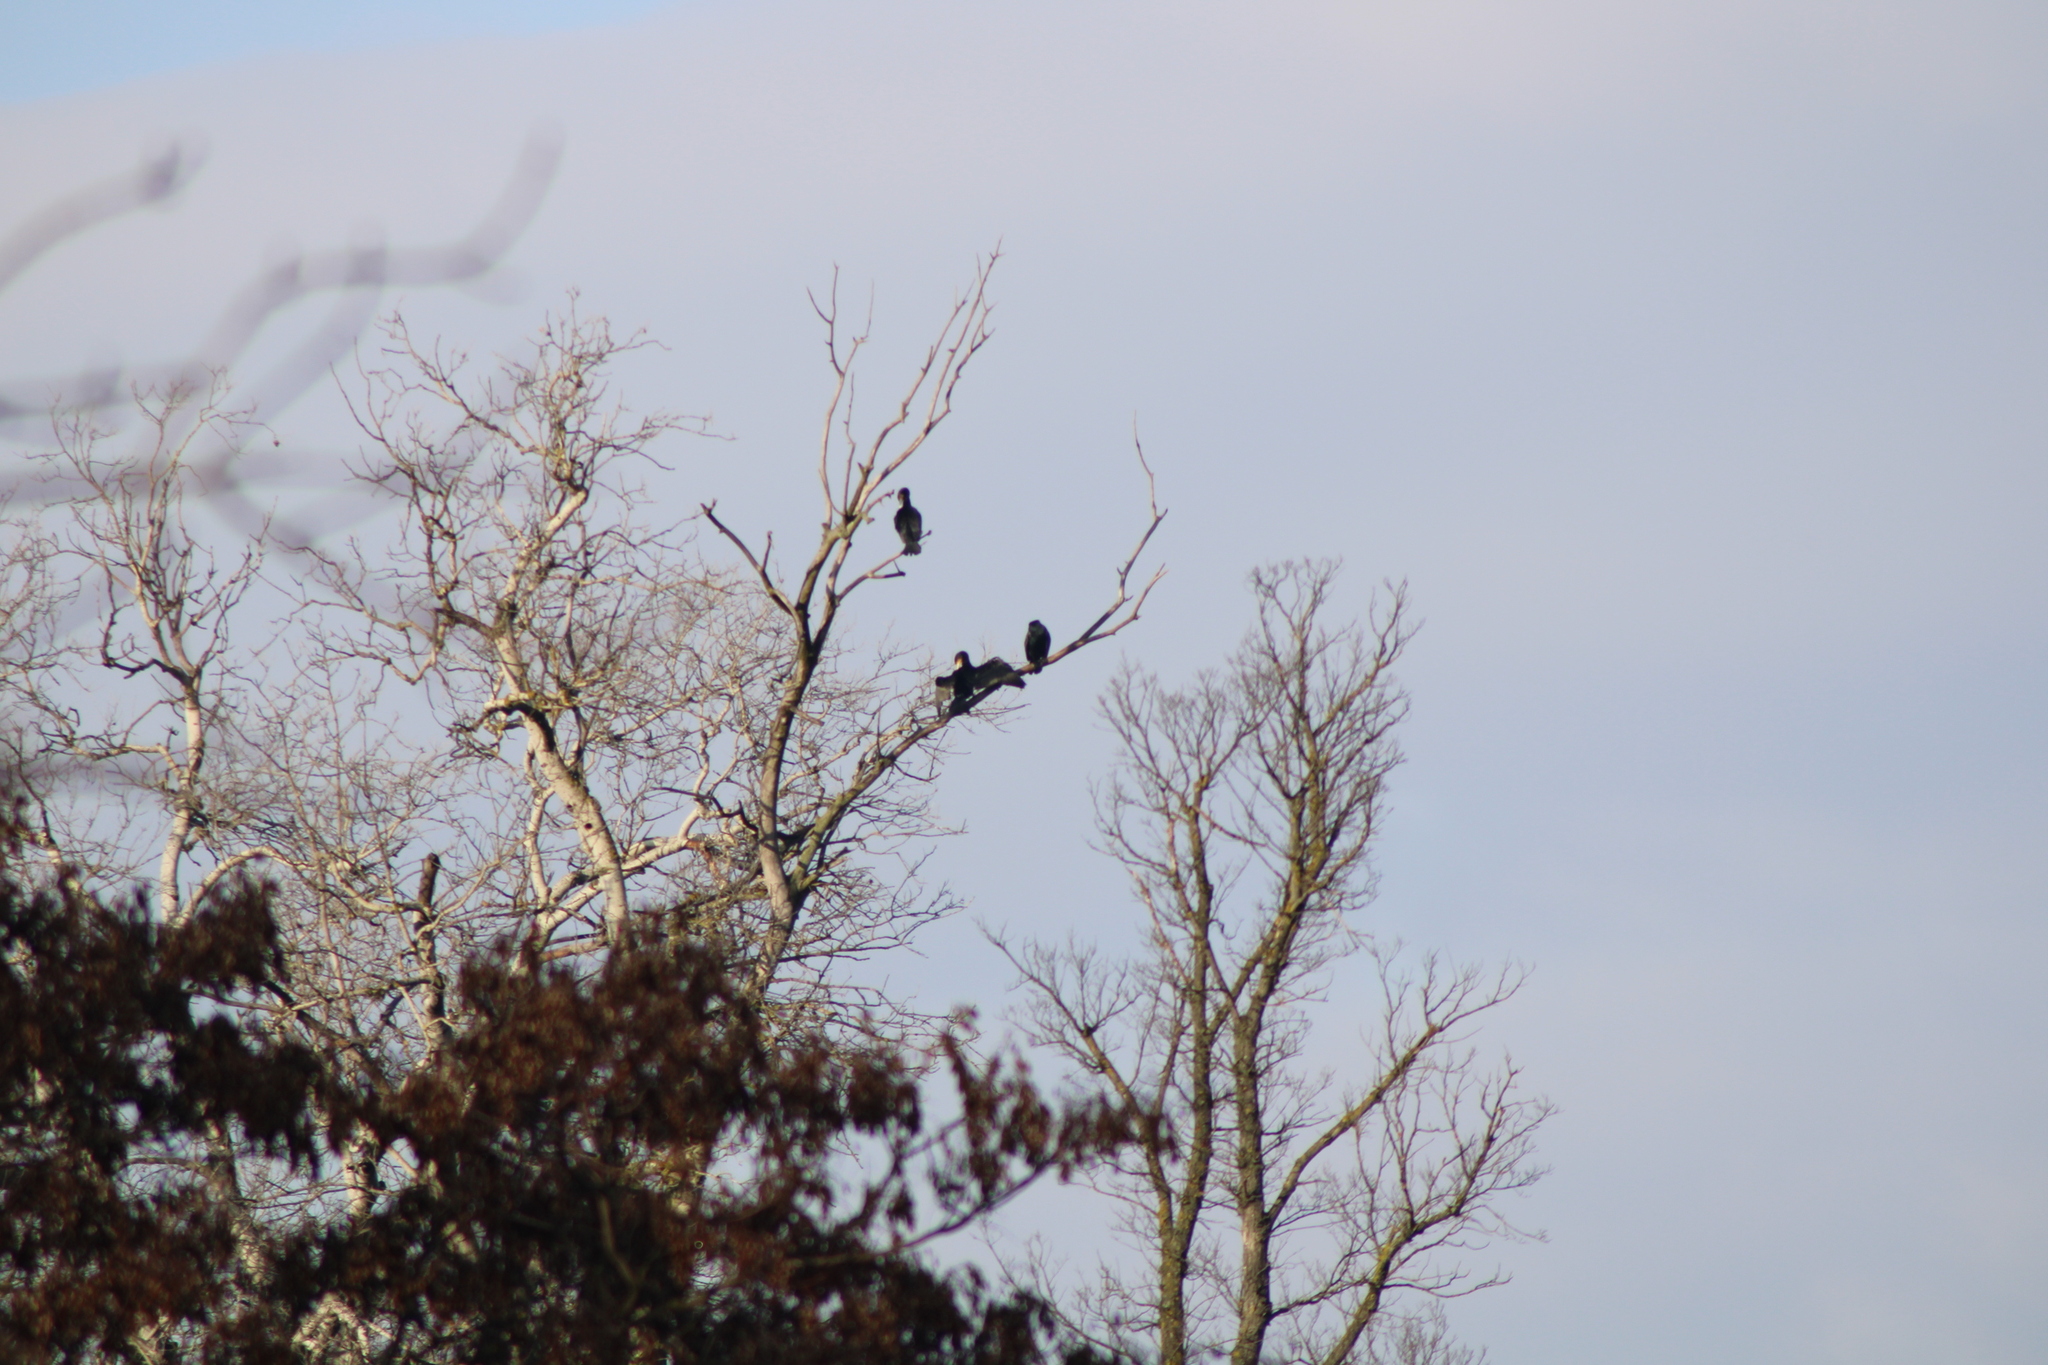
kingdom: Animalia
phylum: Chordata
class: Aves
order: Suliformes
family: Phalacrocoracidae
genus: Phalacrocorax
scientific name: Phalacrocorax carbo
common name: Great cormorant
